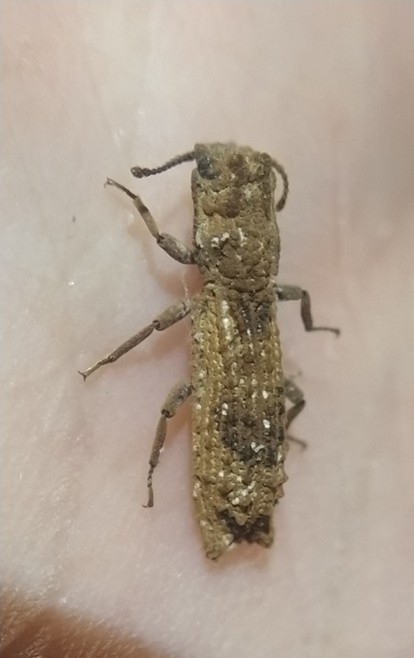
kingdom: Animalia
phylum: Arthropoda
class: Insecta
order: Coleoptera
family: Zopheridae
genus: Rytinotus
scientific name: Rytinotus
